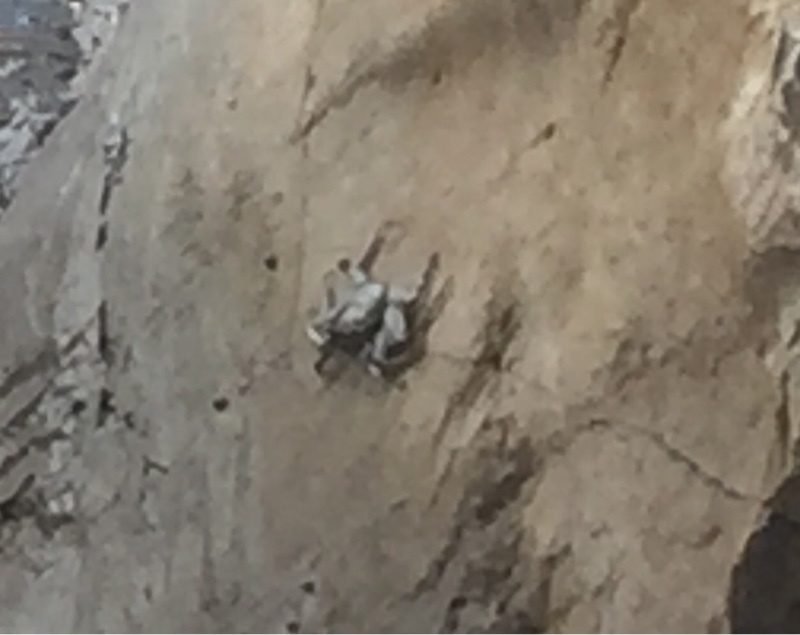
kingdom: Animalia
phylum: Arthropoda
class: Malacostraca
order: Decapoda
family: Grapsidae
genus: Grapsus
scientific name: Grapsus adscensionis
